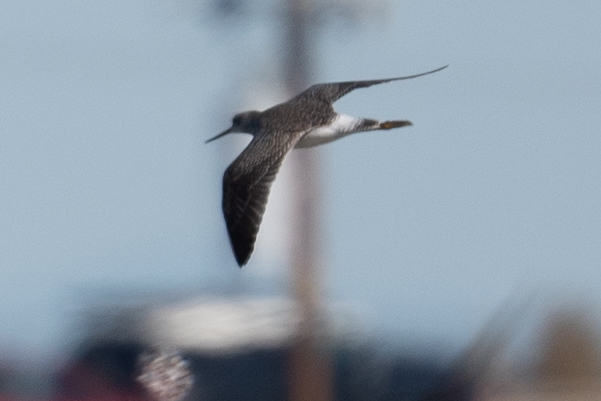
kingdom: Animalia
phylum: Chordata
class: Aves
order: Charadriiformes
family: Scolopacidae
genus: Tringa
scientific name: Tringa melanoleuca
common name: Greater yellowlegs
